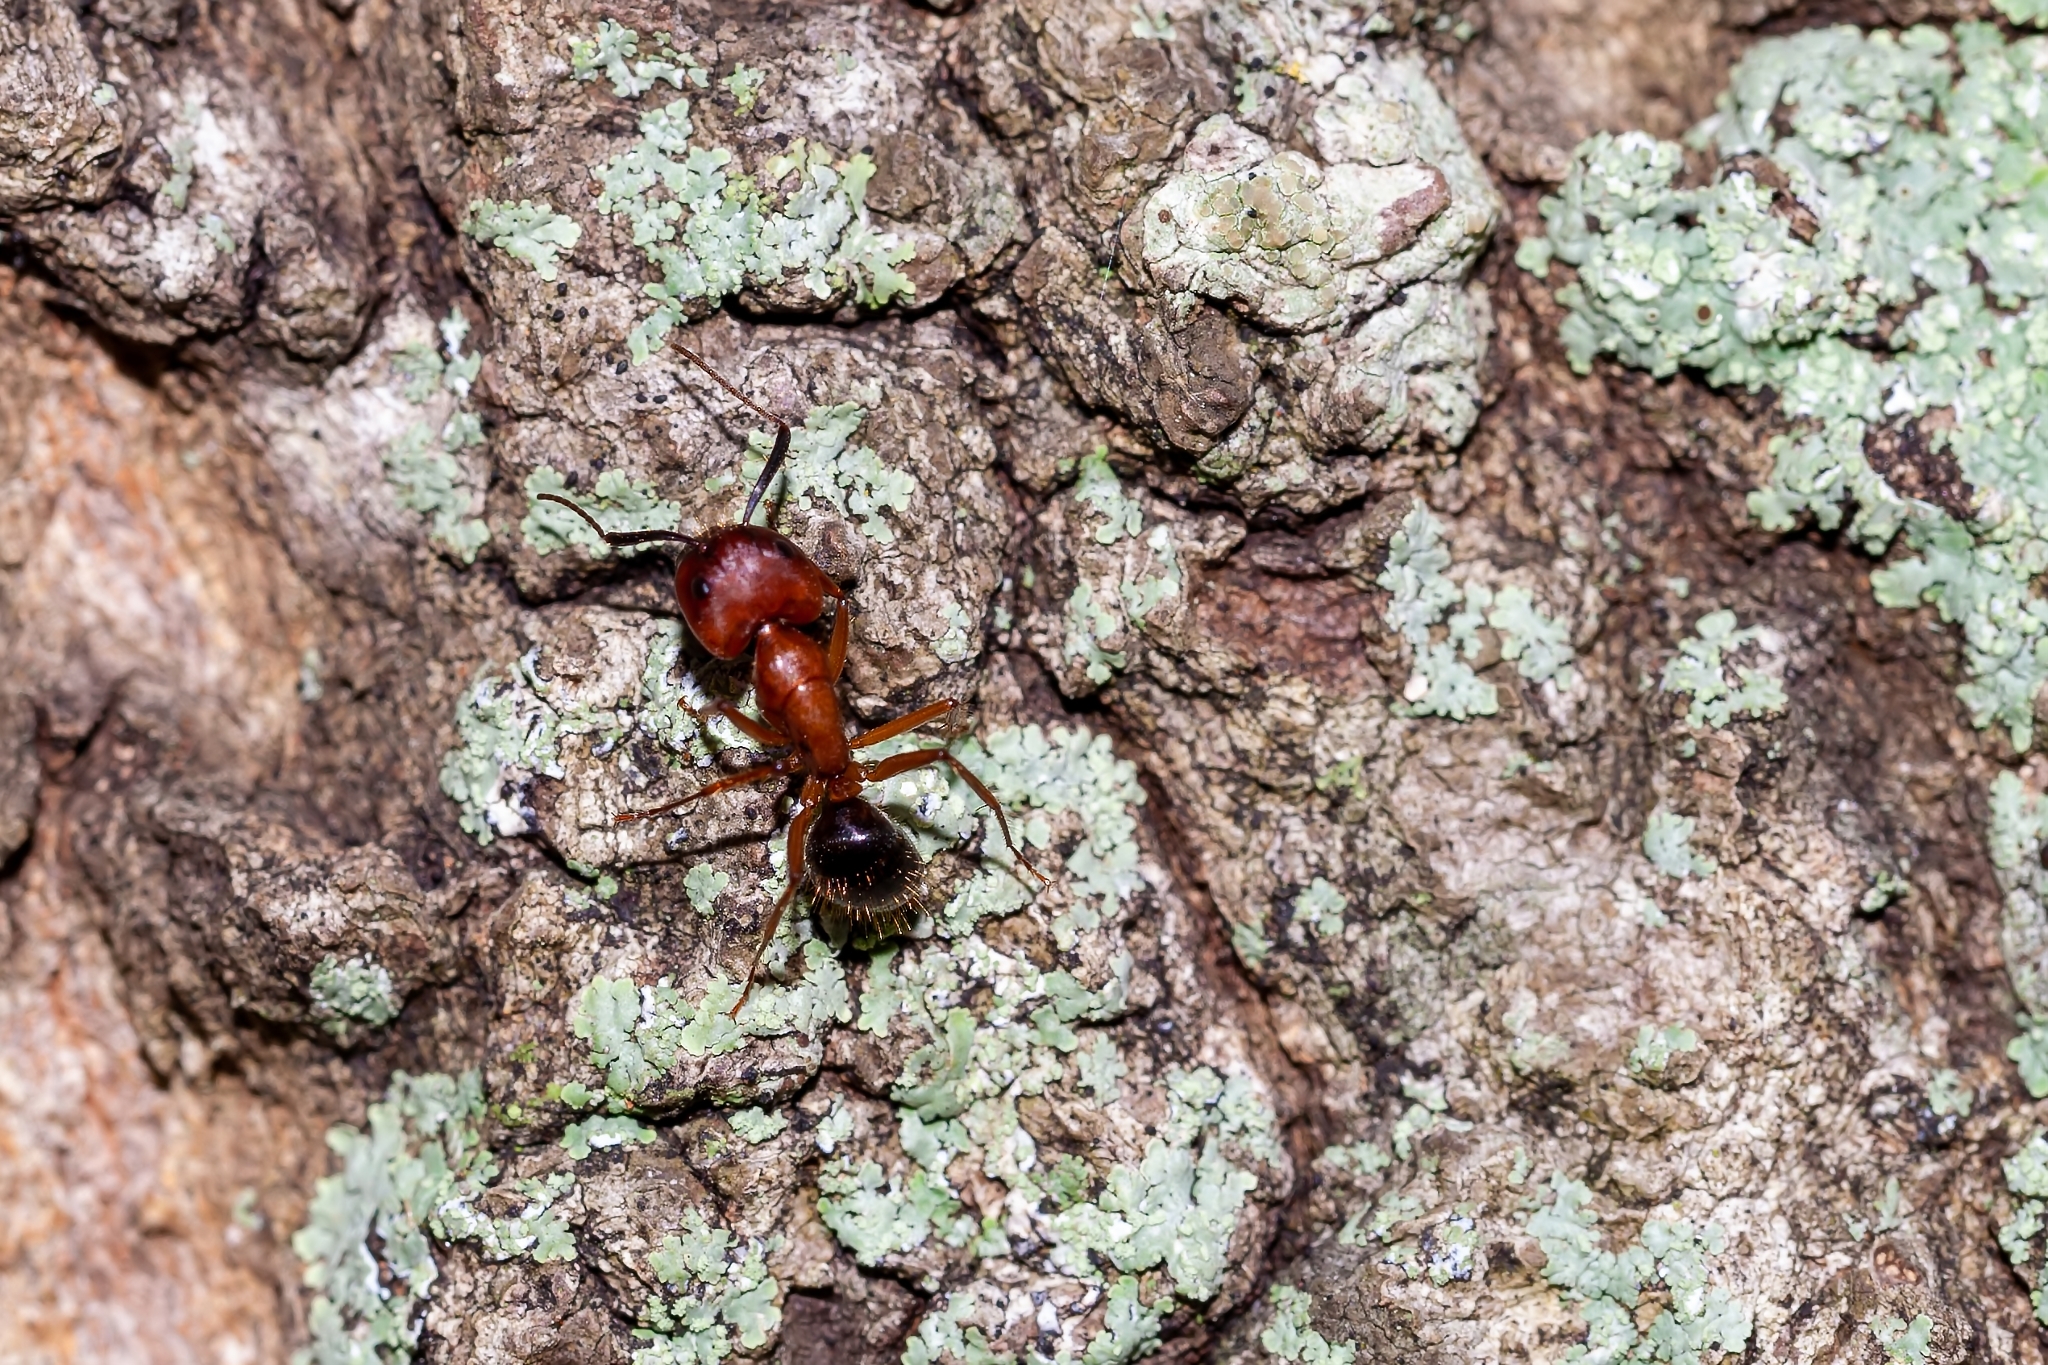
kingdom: Animalia
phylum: Arthropoda
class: Insecta
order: Hymenoptera
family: Formicidae
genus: Camponotus
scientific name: Camponotus floridanus
